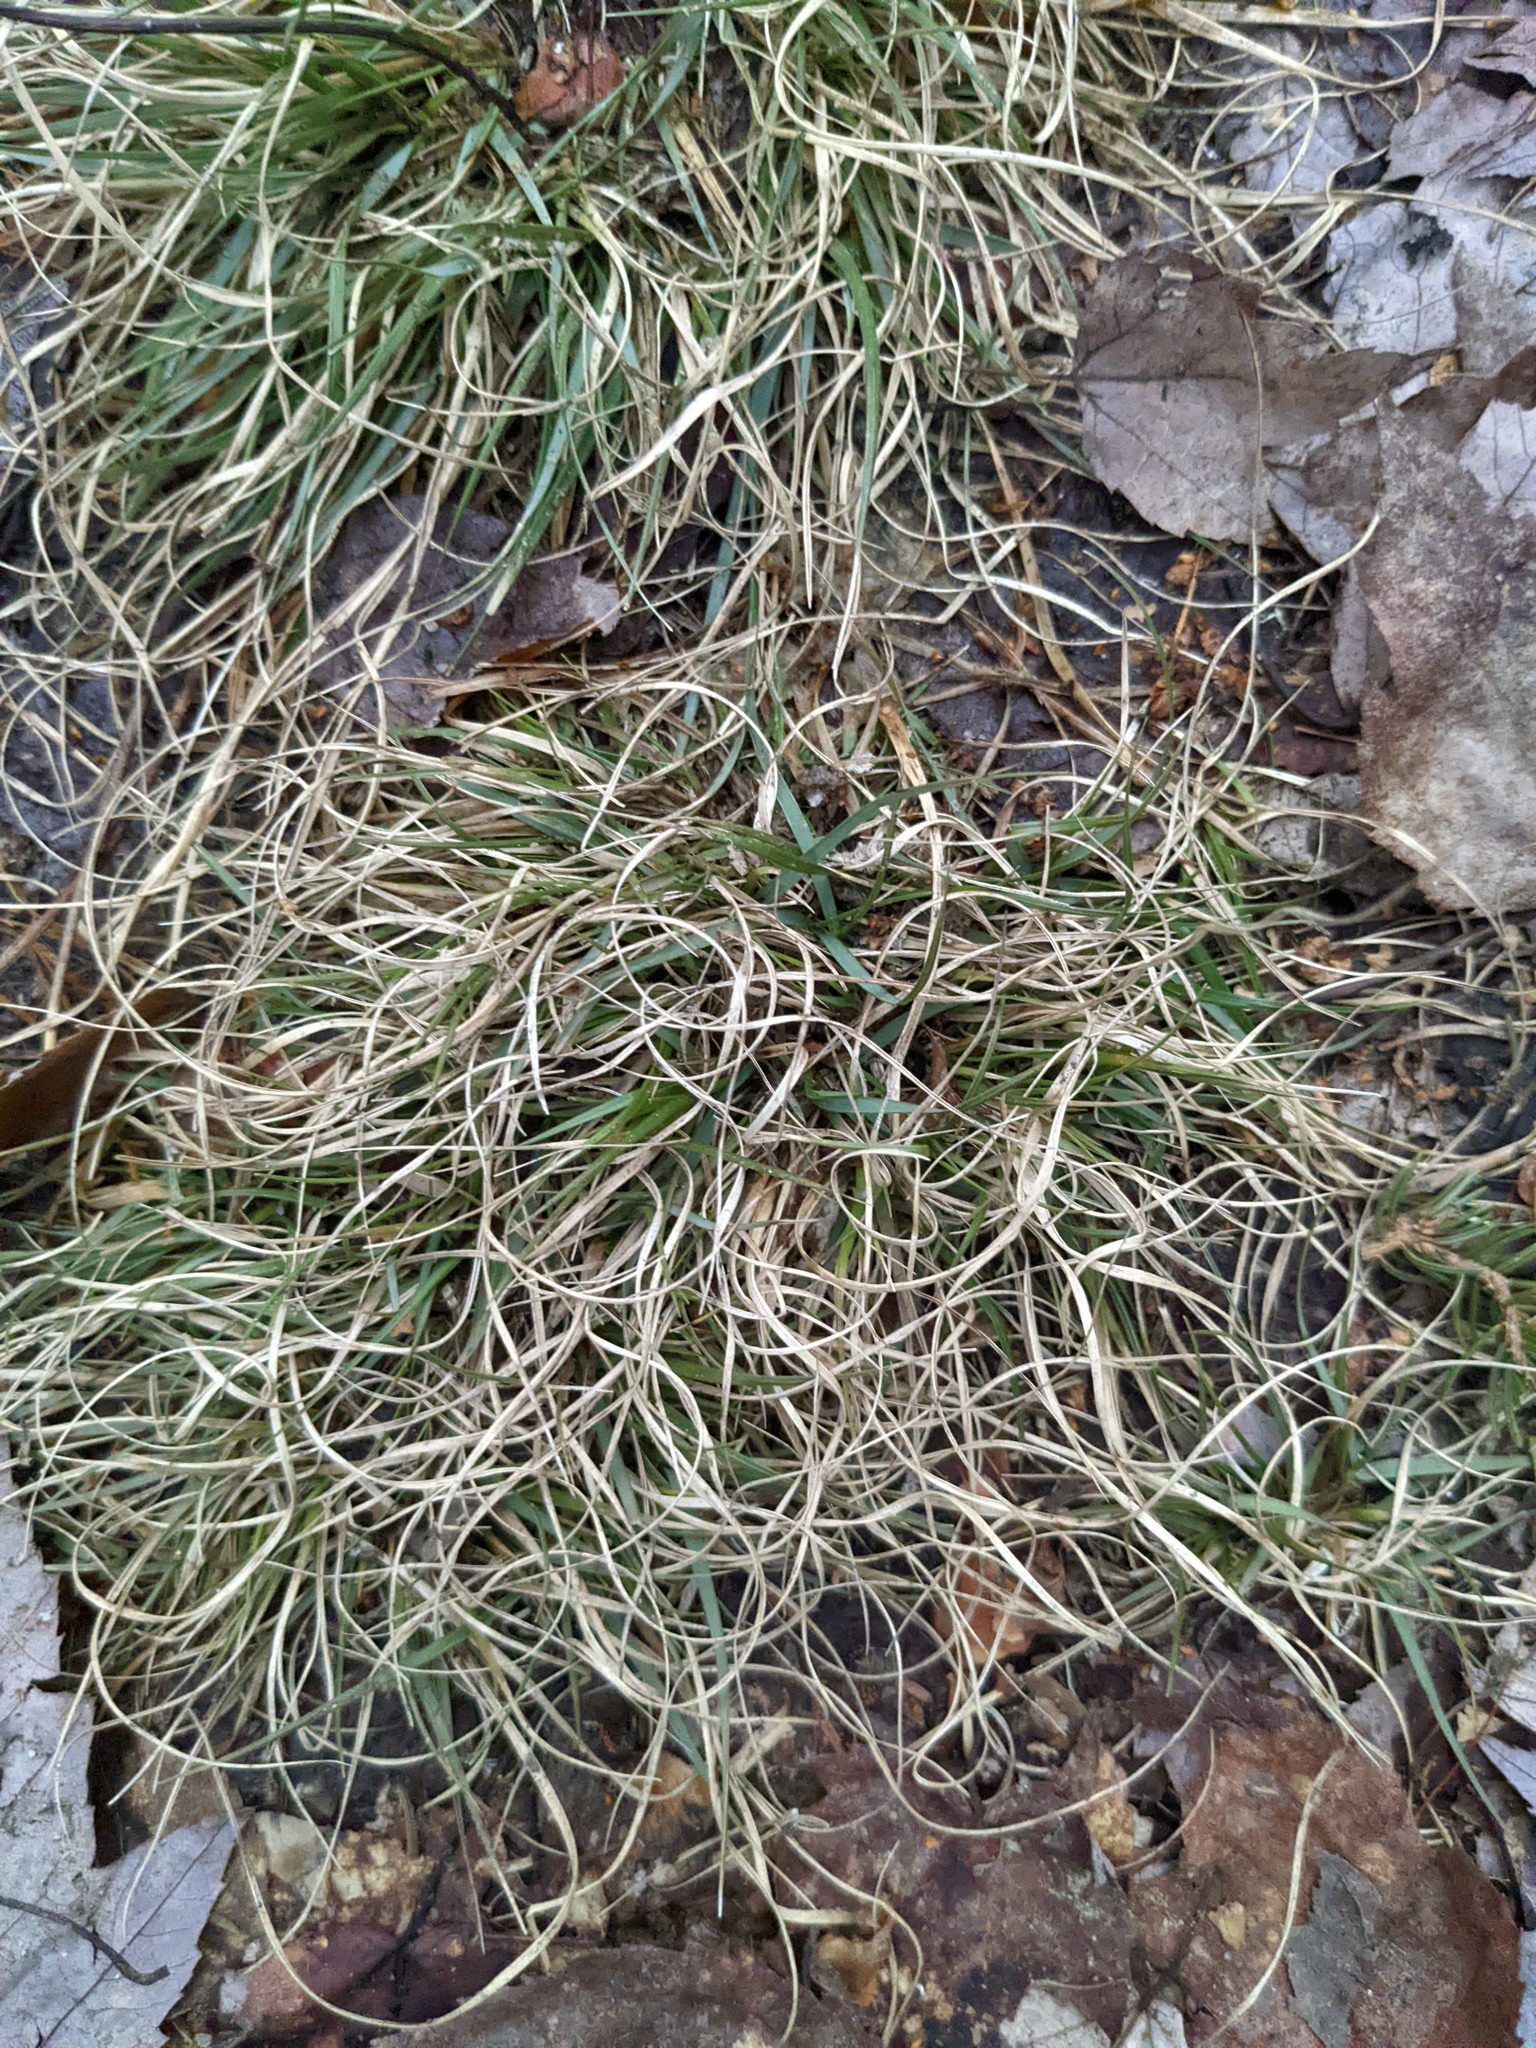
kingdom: Plantae
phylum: Tracheophyta
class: Liliopsida
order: Poales
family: Poaceae
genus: Danthonia
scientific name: Danthonia spicata
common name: Common wild oatgrass
